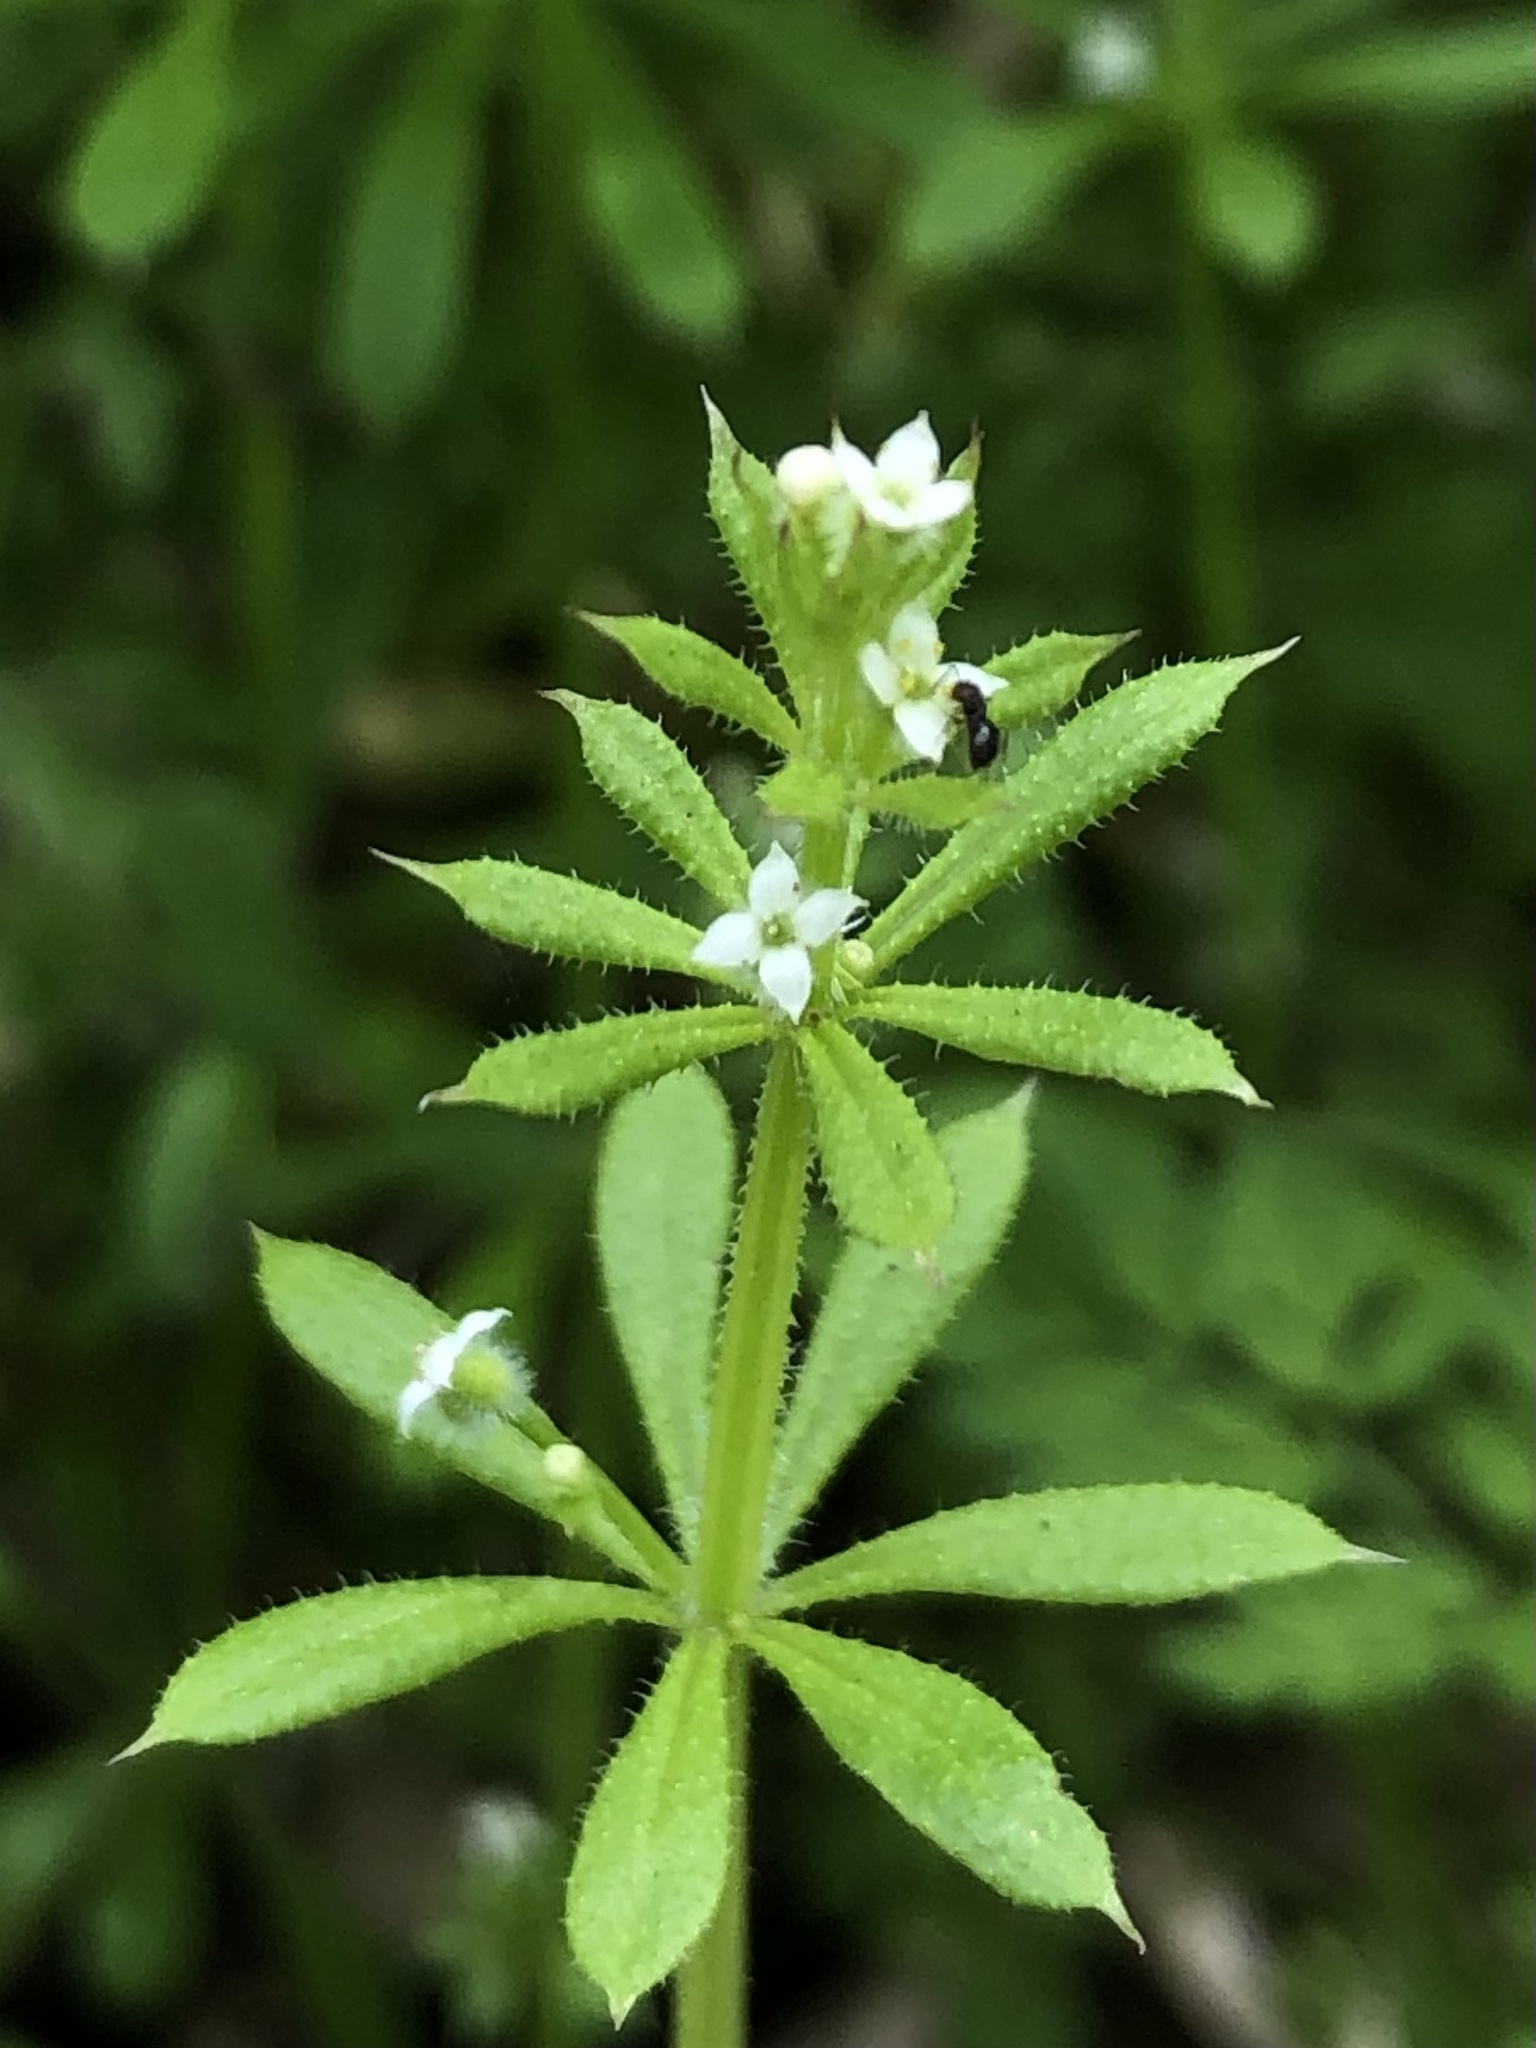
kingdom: Plantae
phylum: Tracheophyta
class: Magnoliopsida
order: Gentianales
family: Rubiaceae
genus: Galium
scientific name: Galium aparine
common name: Cleavers
